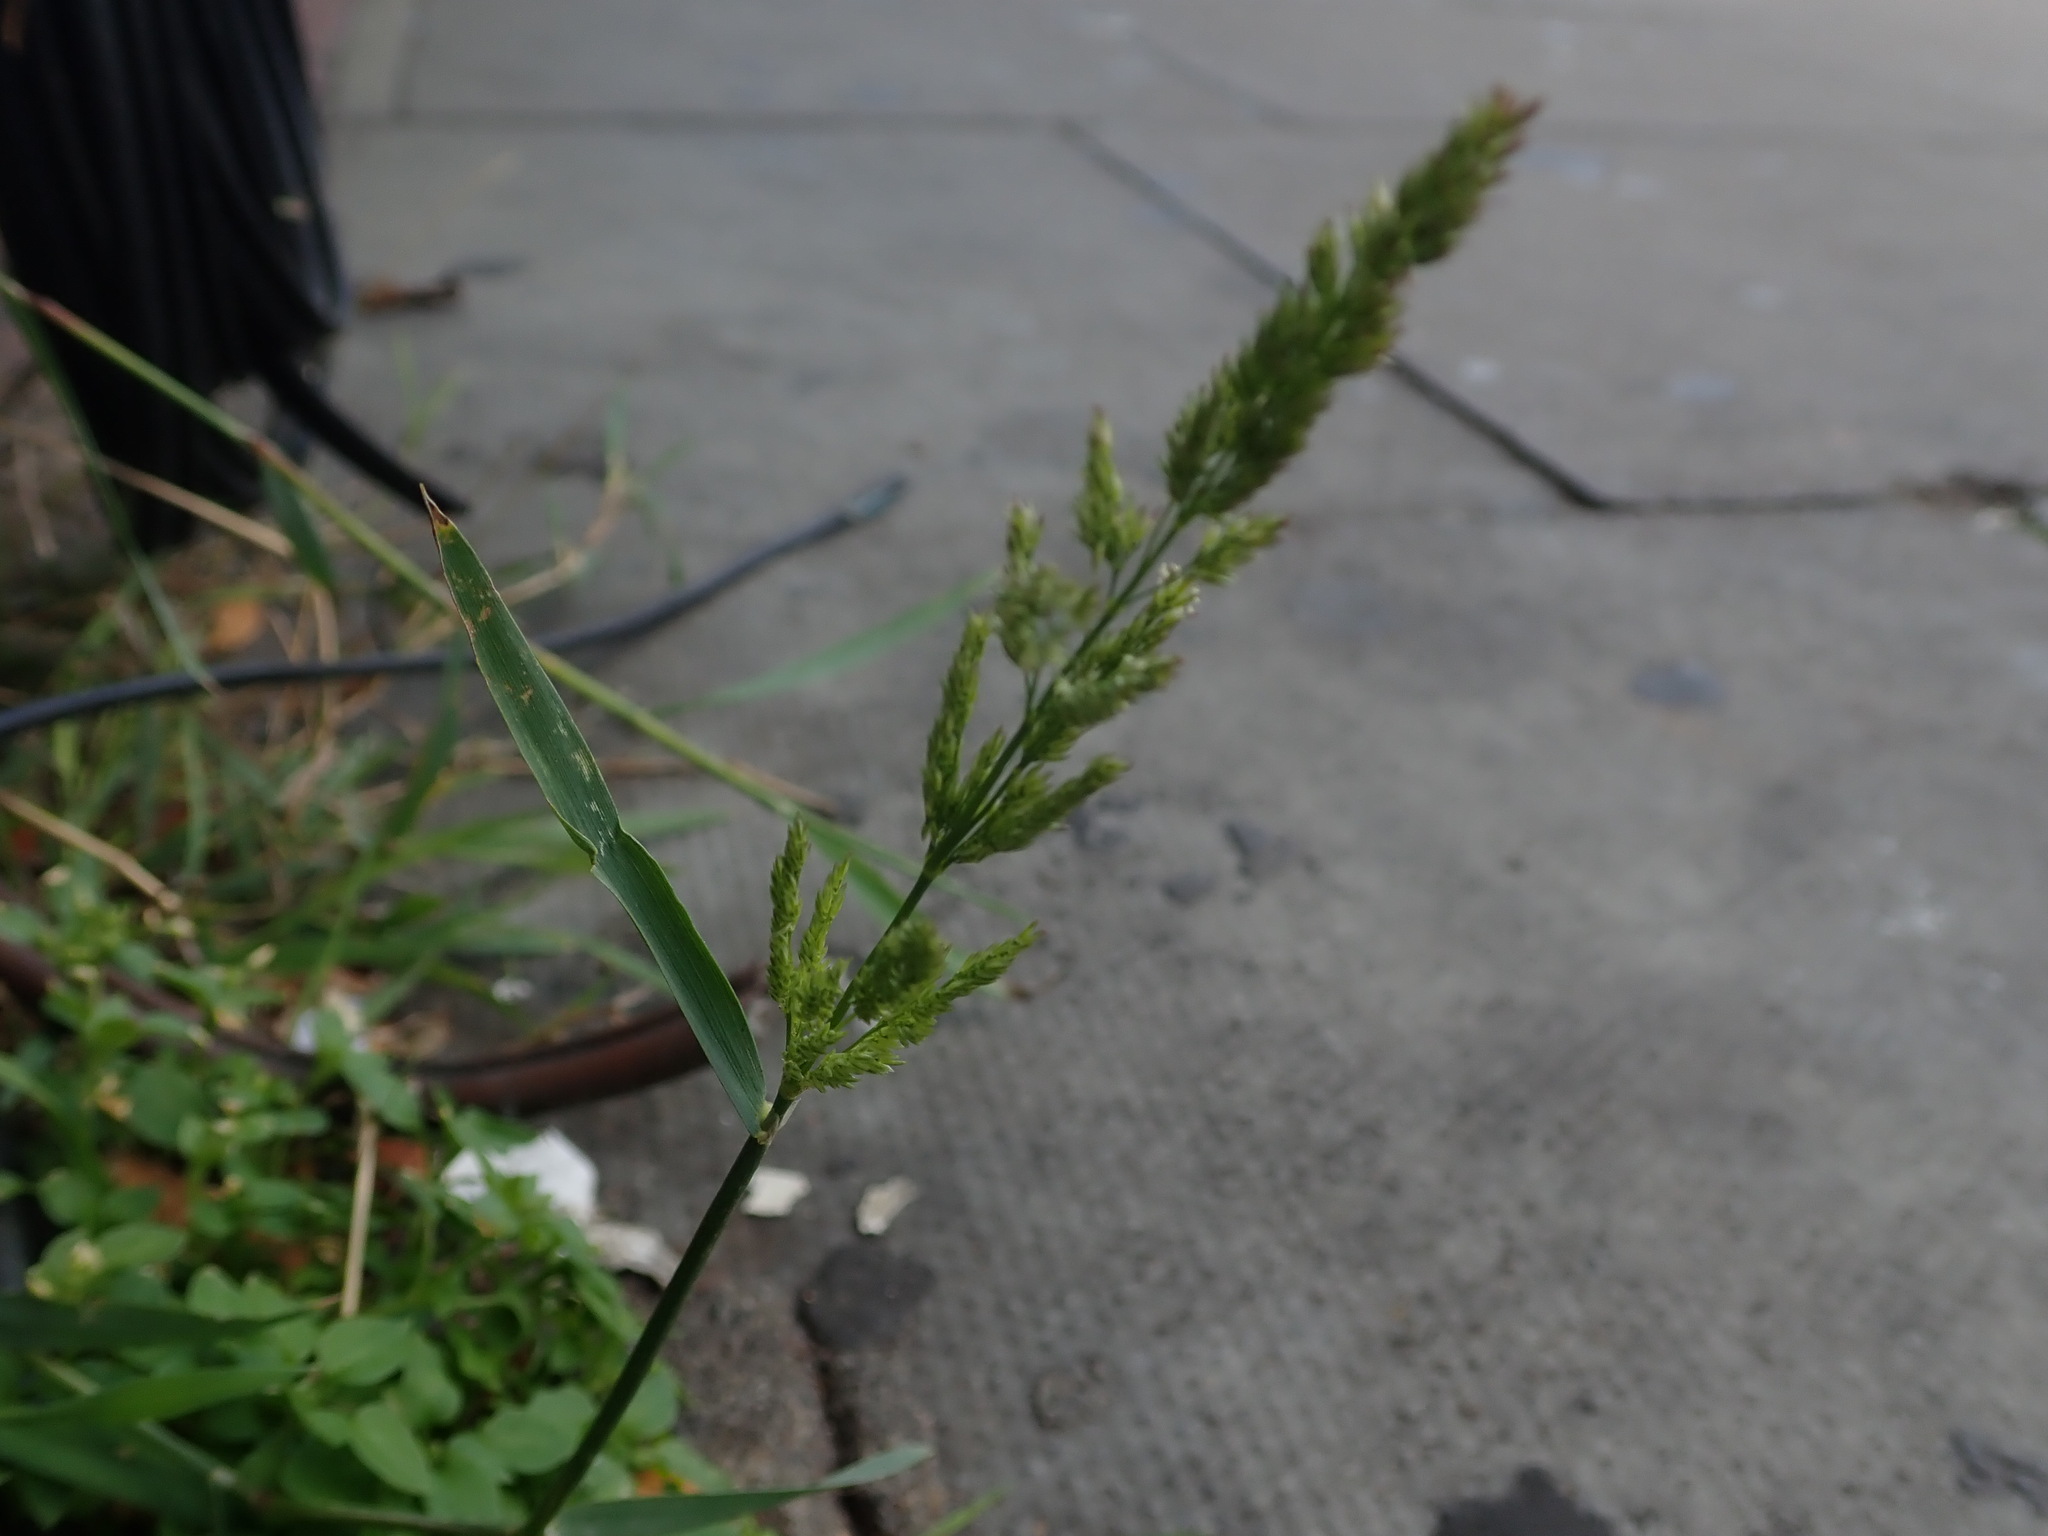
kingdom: Plantae
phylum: Tracheophyta
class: Liliopsida
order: Poales
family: Poaceae
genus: Polypogon
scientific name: Polypogon viridis
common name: Water bent
